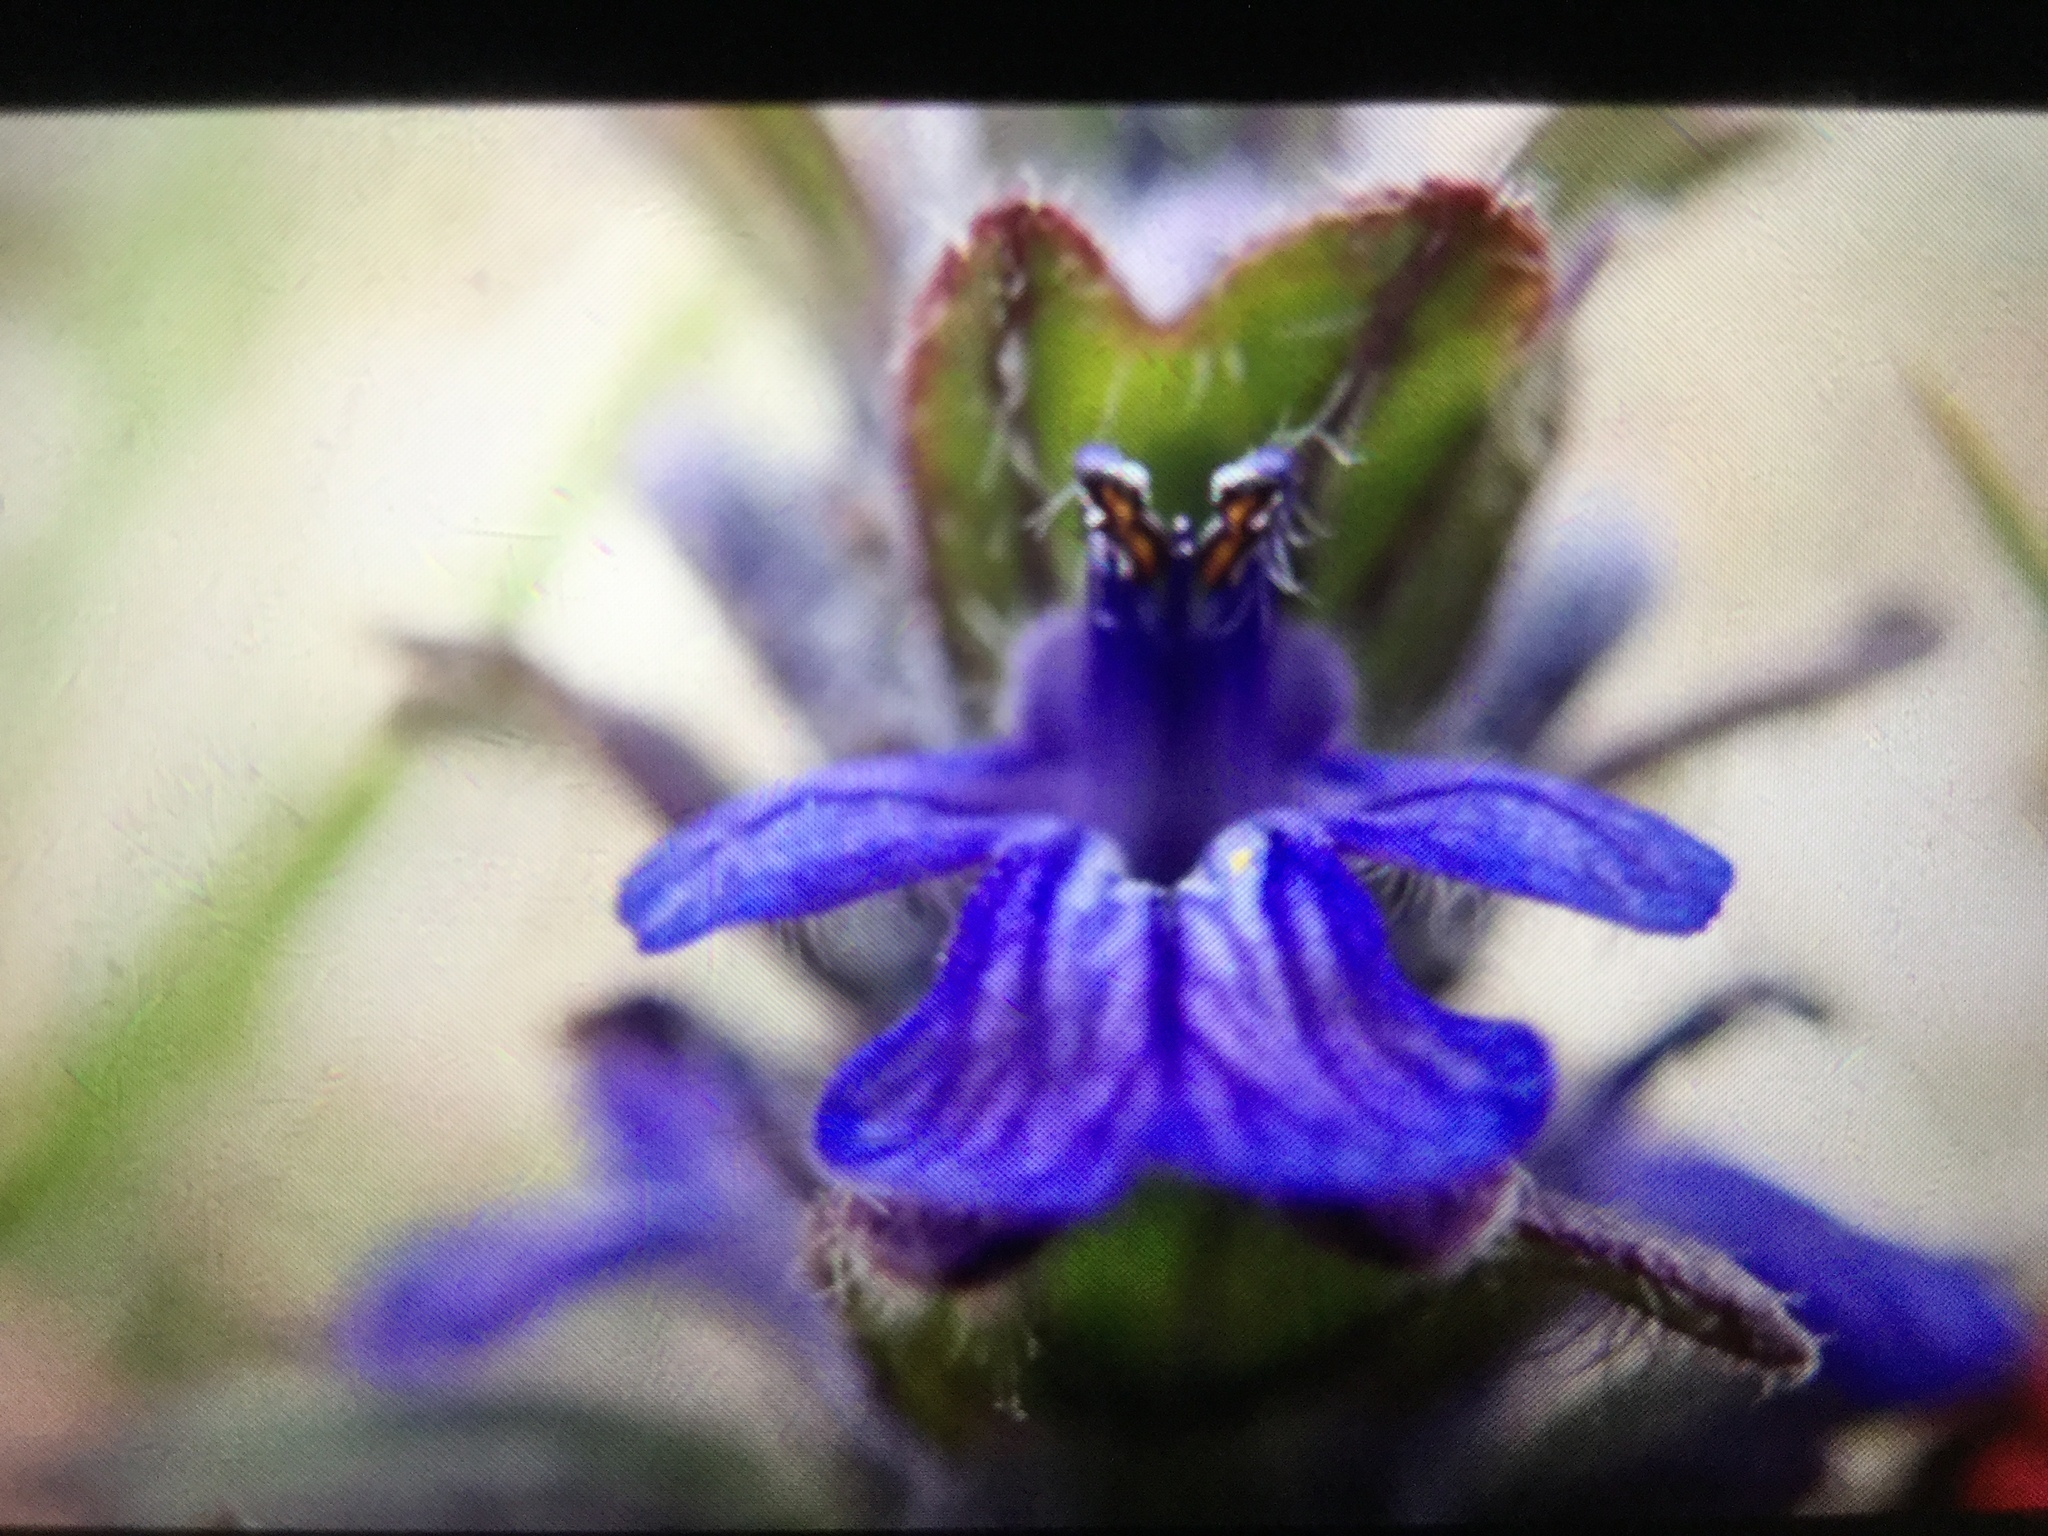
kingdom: Plantae
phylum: Tracheophyta
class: Magnoliopsida
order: Lamiales
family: Lamiaceae
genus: Ajuga
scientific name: Ajuga reptans
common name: Bugle
